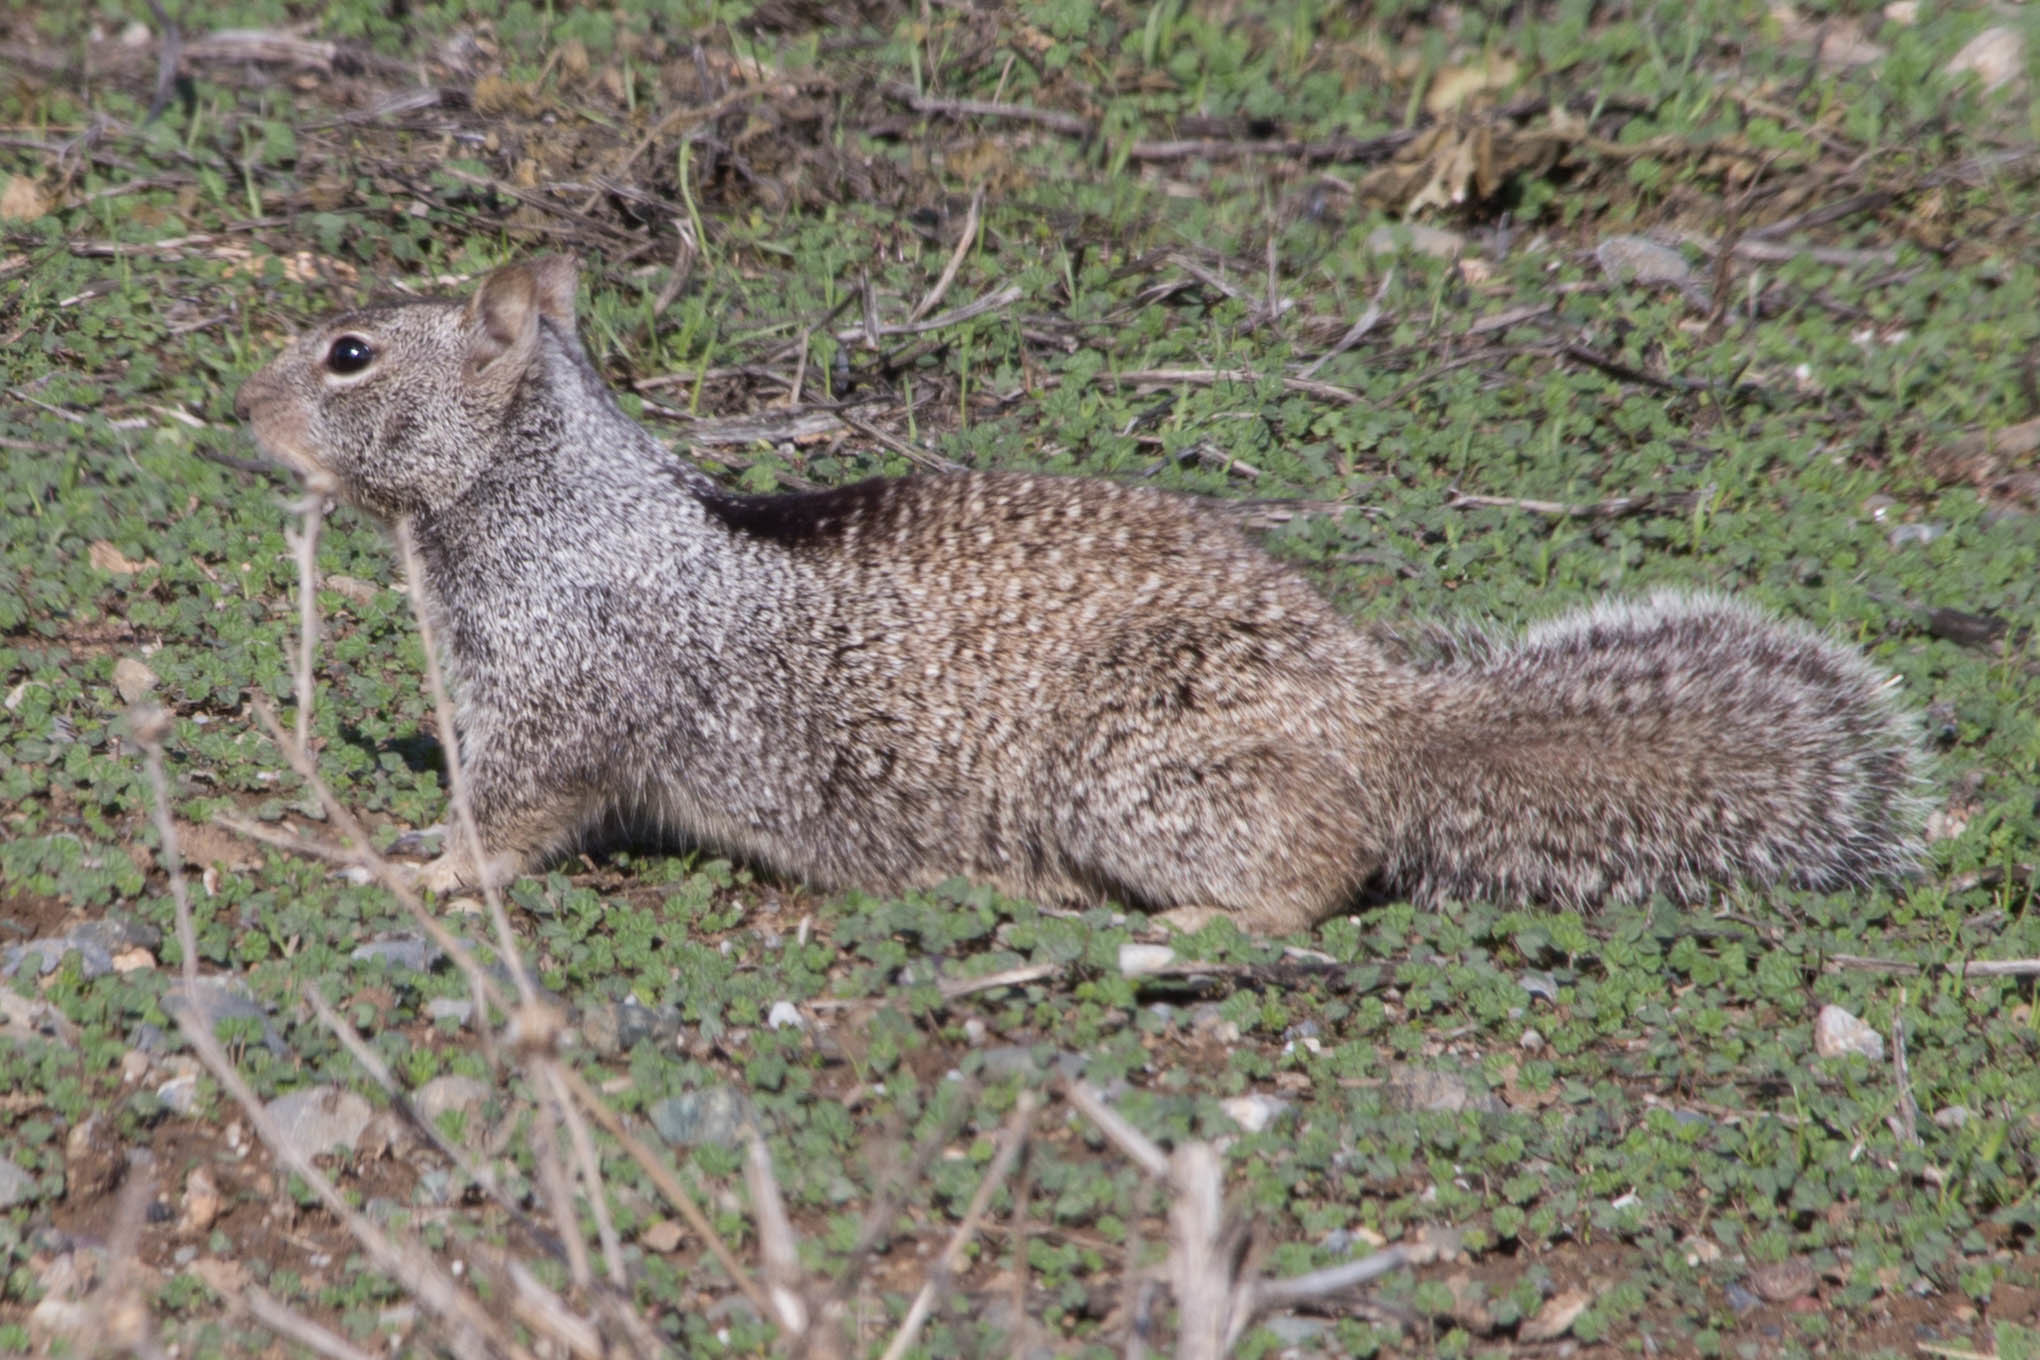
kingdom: Animalia
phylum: Chordata
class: Mammalia
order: Rodentia
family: Sciuridae
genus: Otospermophilus
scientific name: Otospermophilus beecheyi
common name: California ground squirrel
